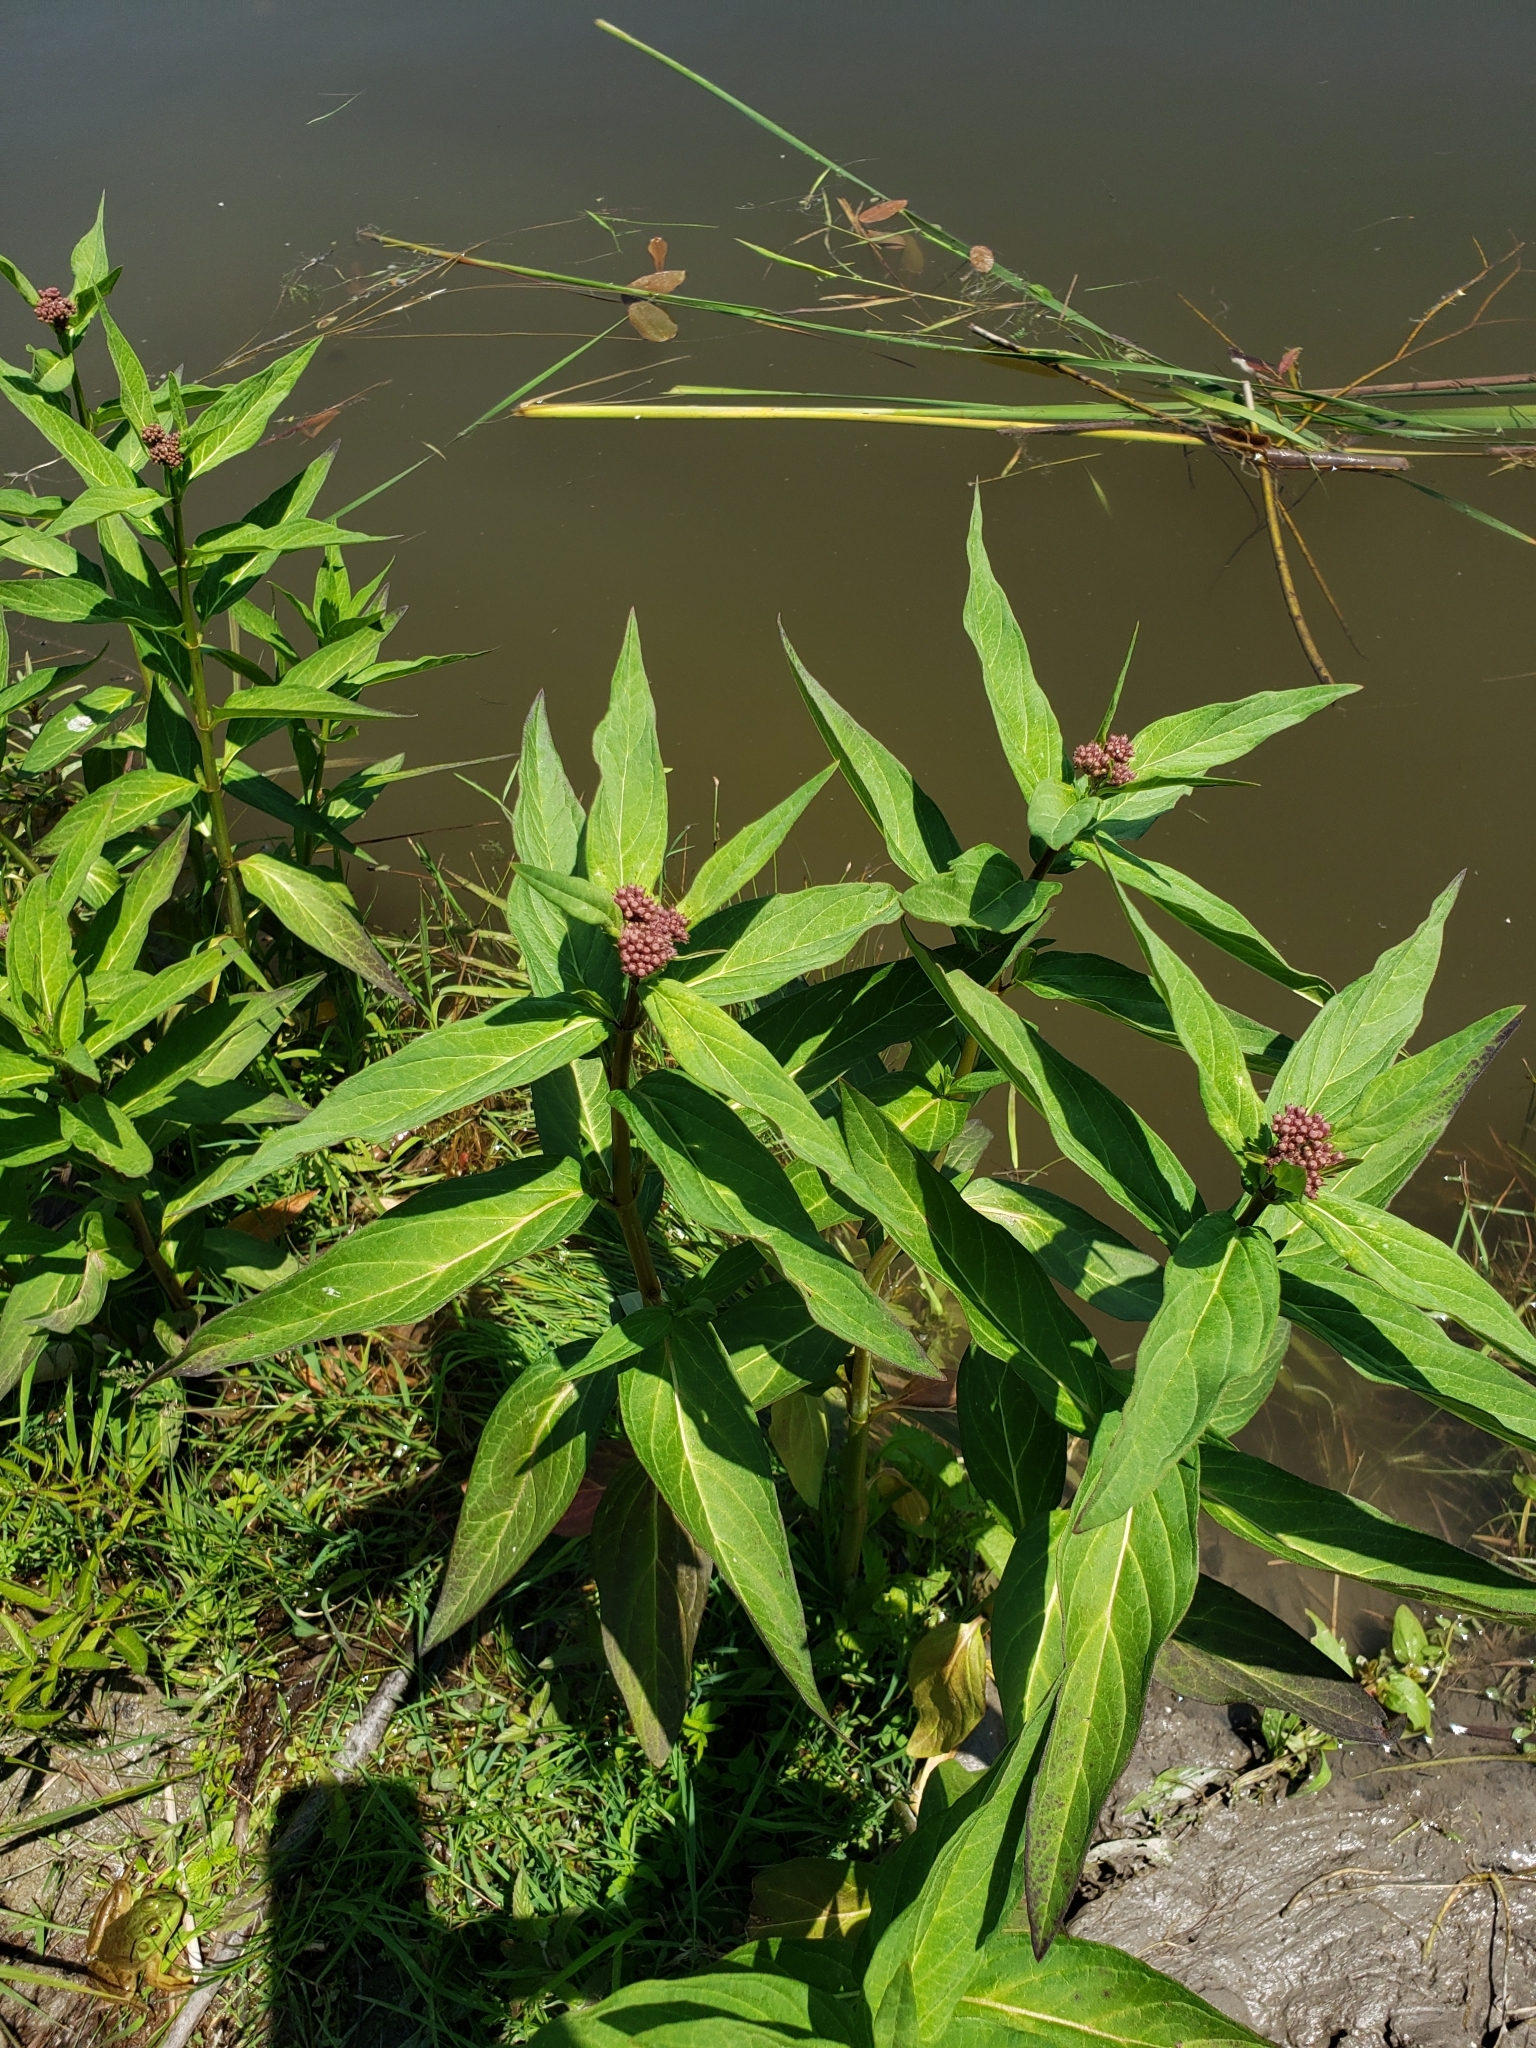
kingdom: Plantae
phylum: Tracheophyta
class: Magnoliopsida
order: Gentianales
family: Apocynaceae
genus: Asclepias
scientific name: Asclepias incarnata
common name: Swamp milkweed
